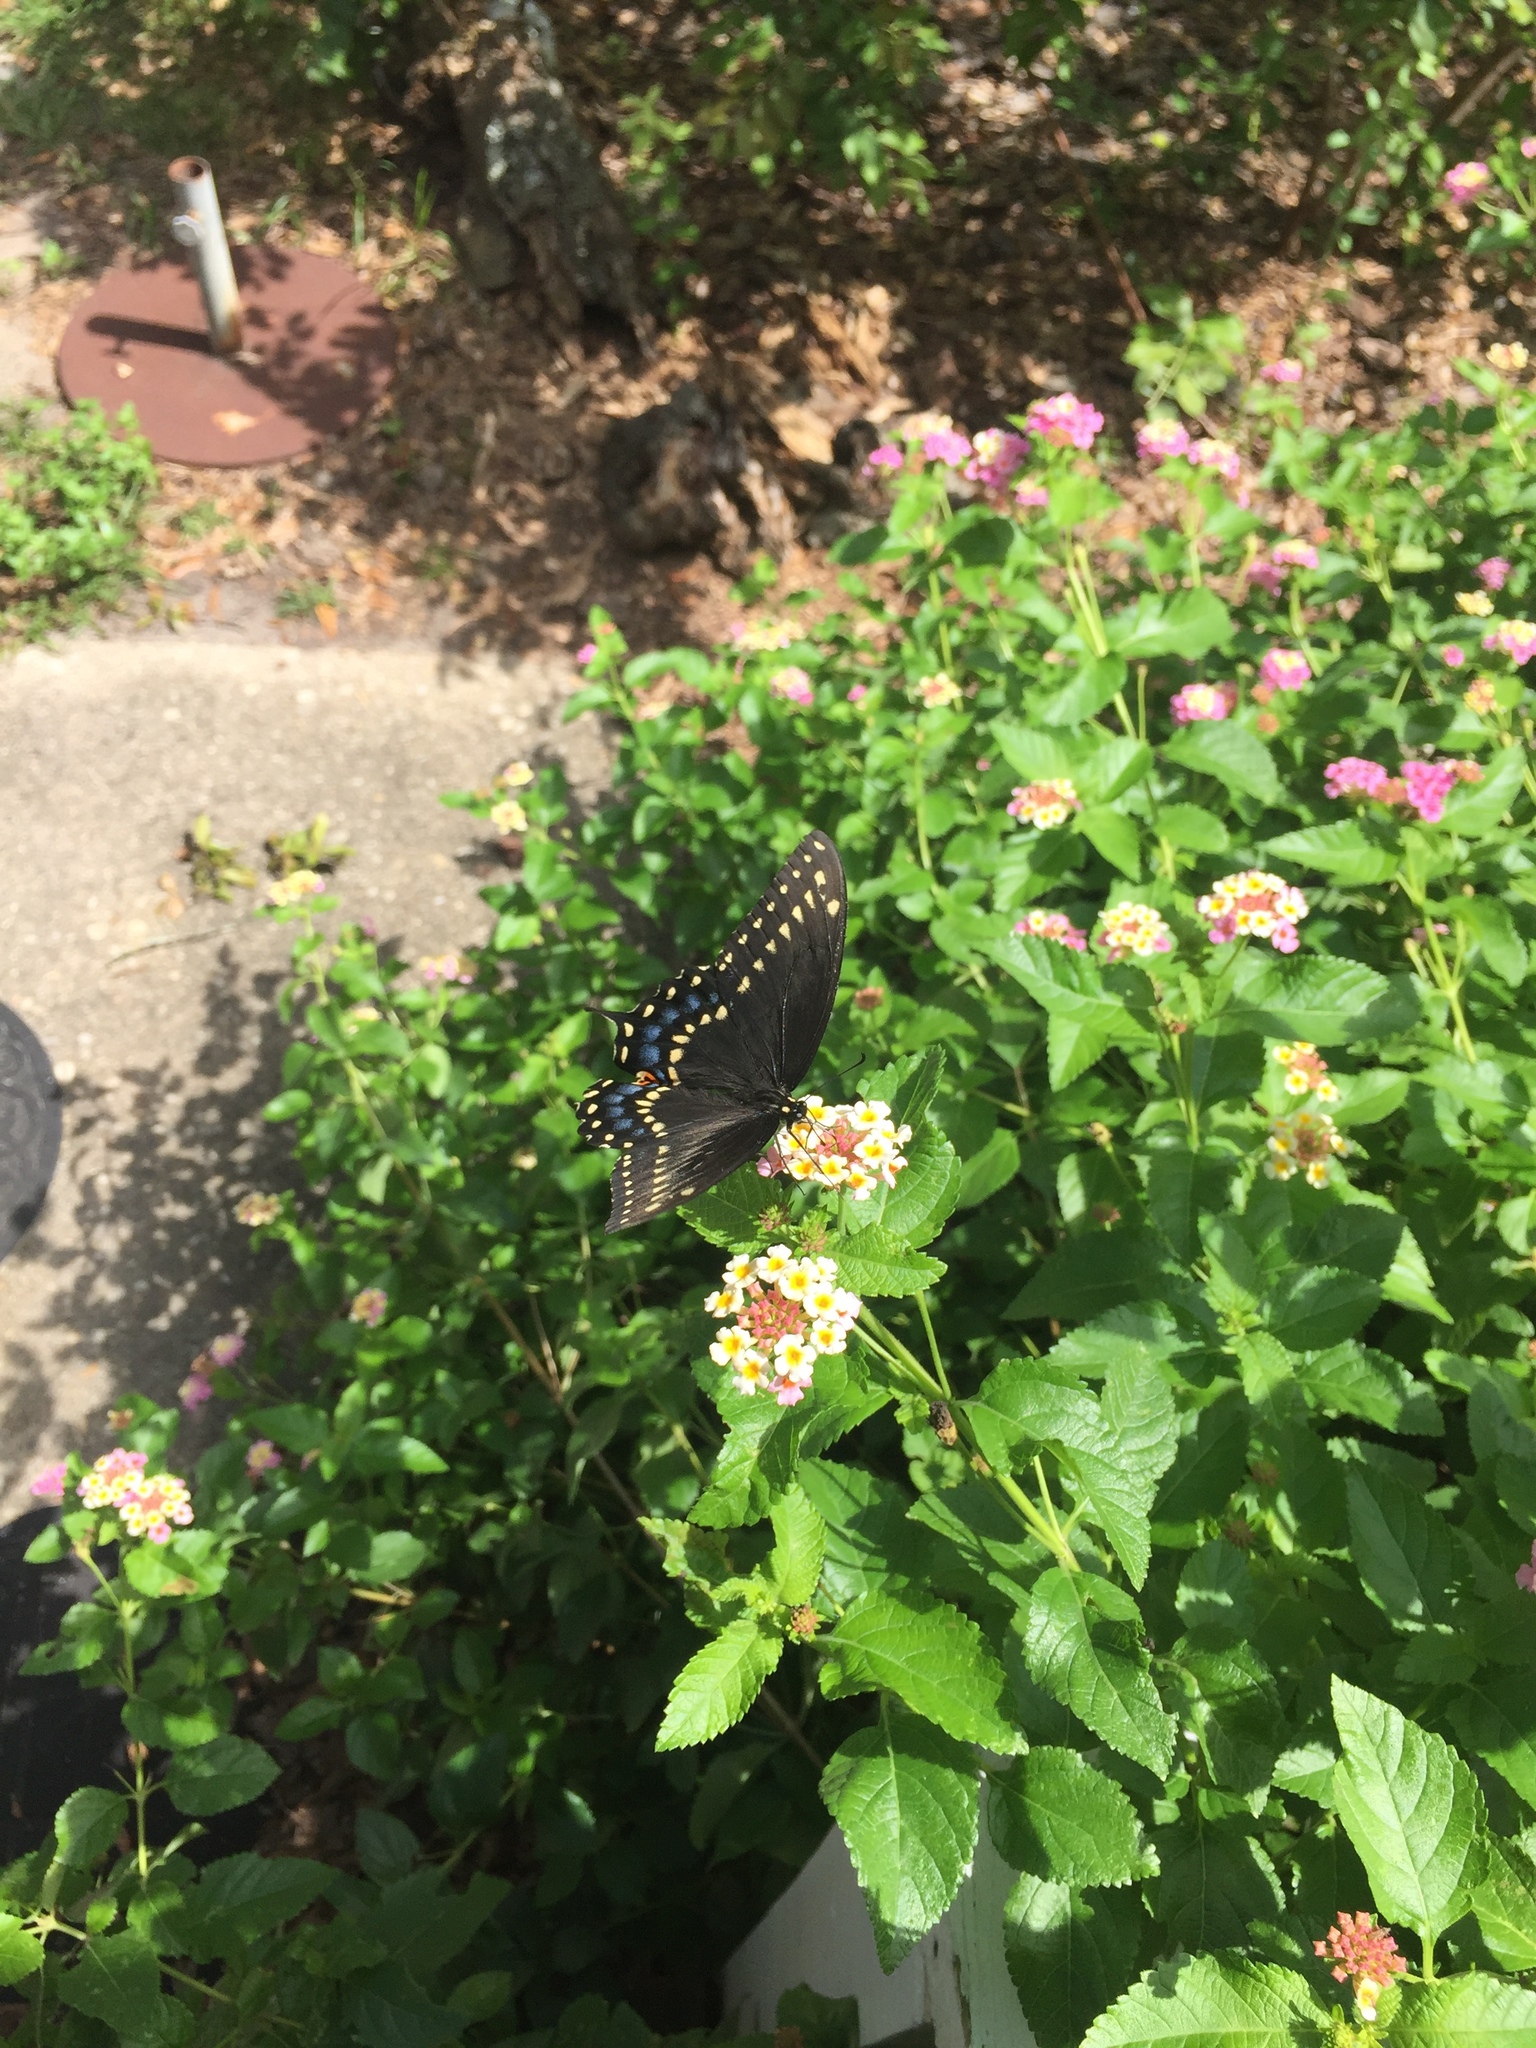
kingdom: Animalia
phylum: Arthropoda
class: Insecta
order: Lepidoptera
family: Papilionidae
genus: Papilio
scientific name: Papilio polyxenes
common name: Black swallowtail
